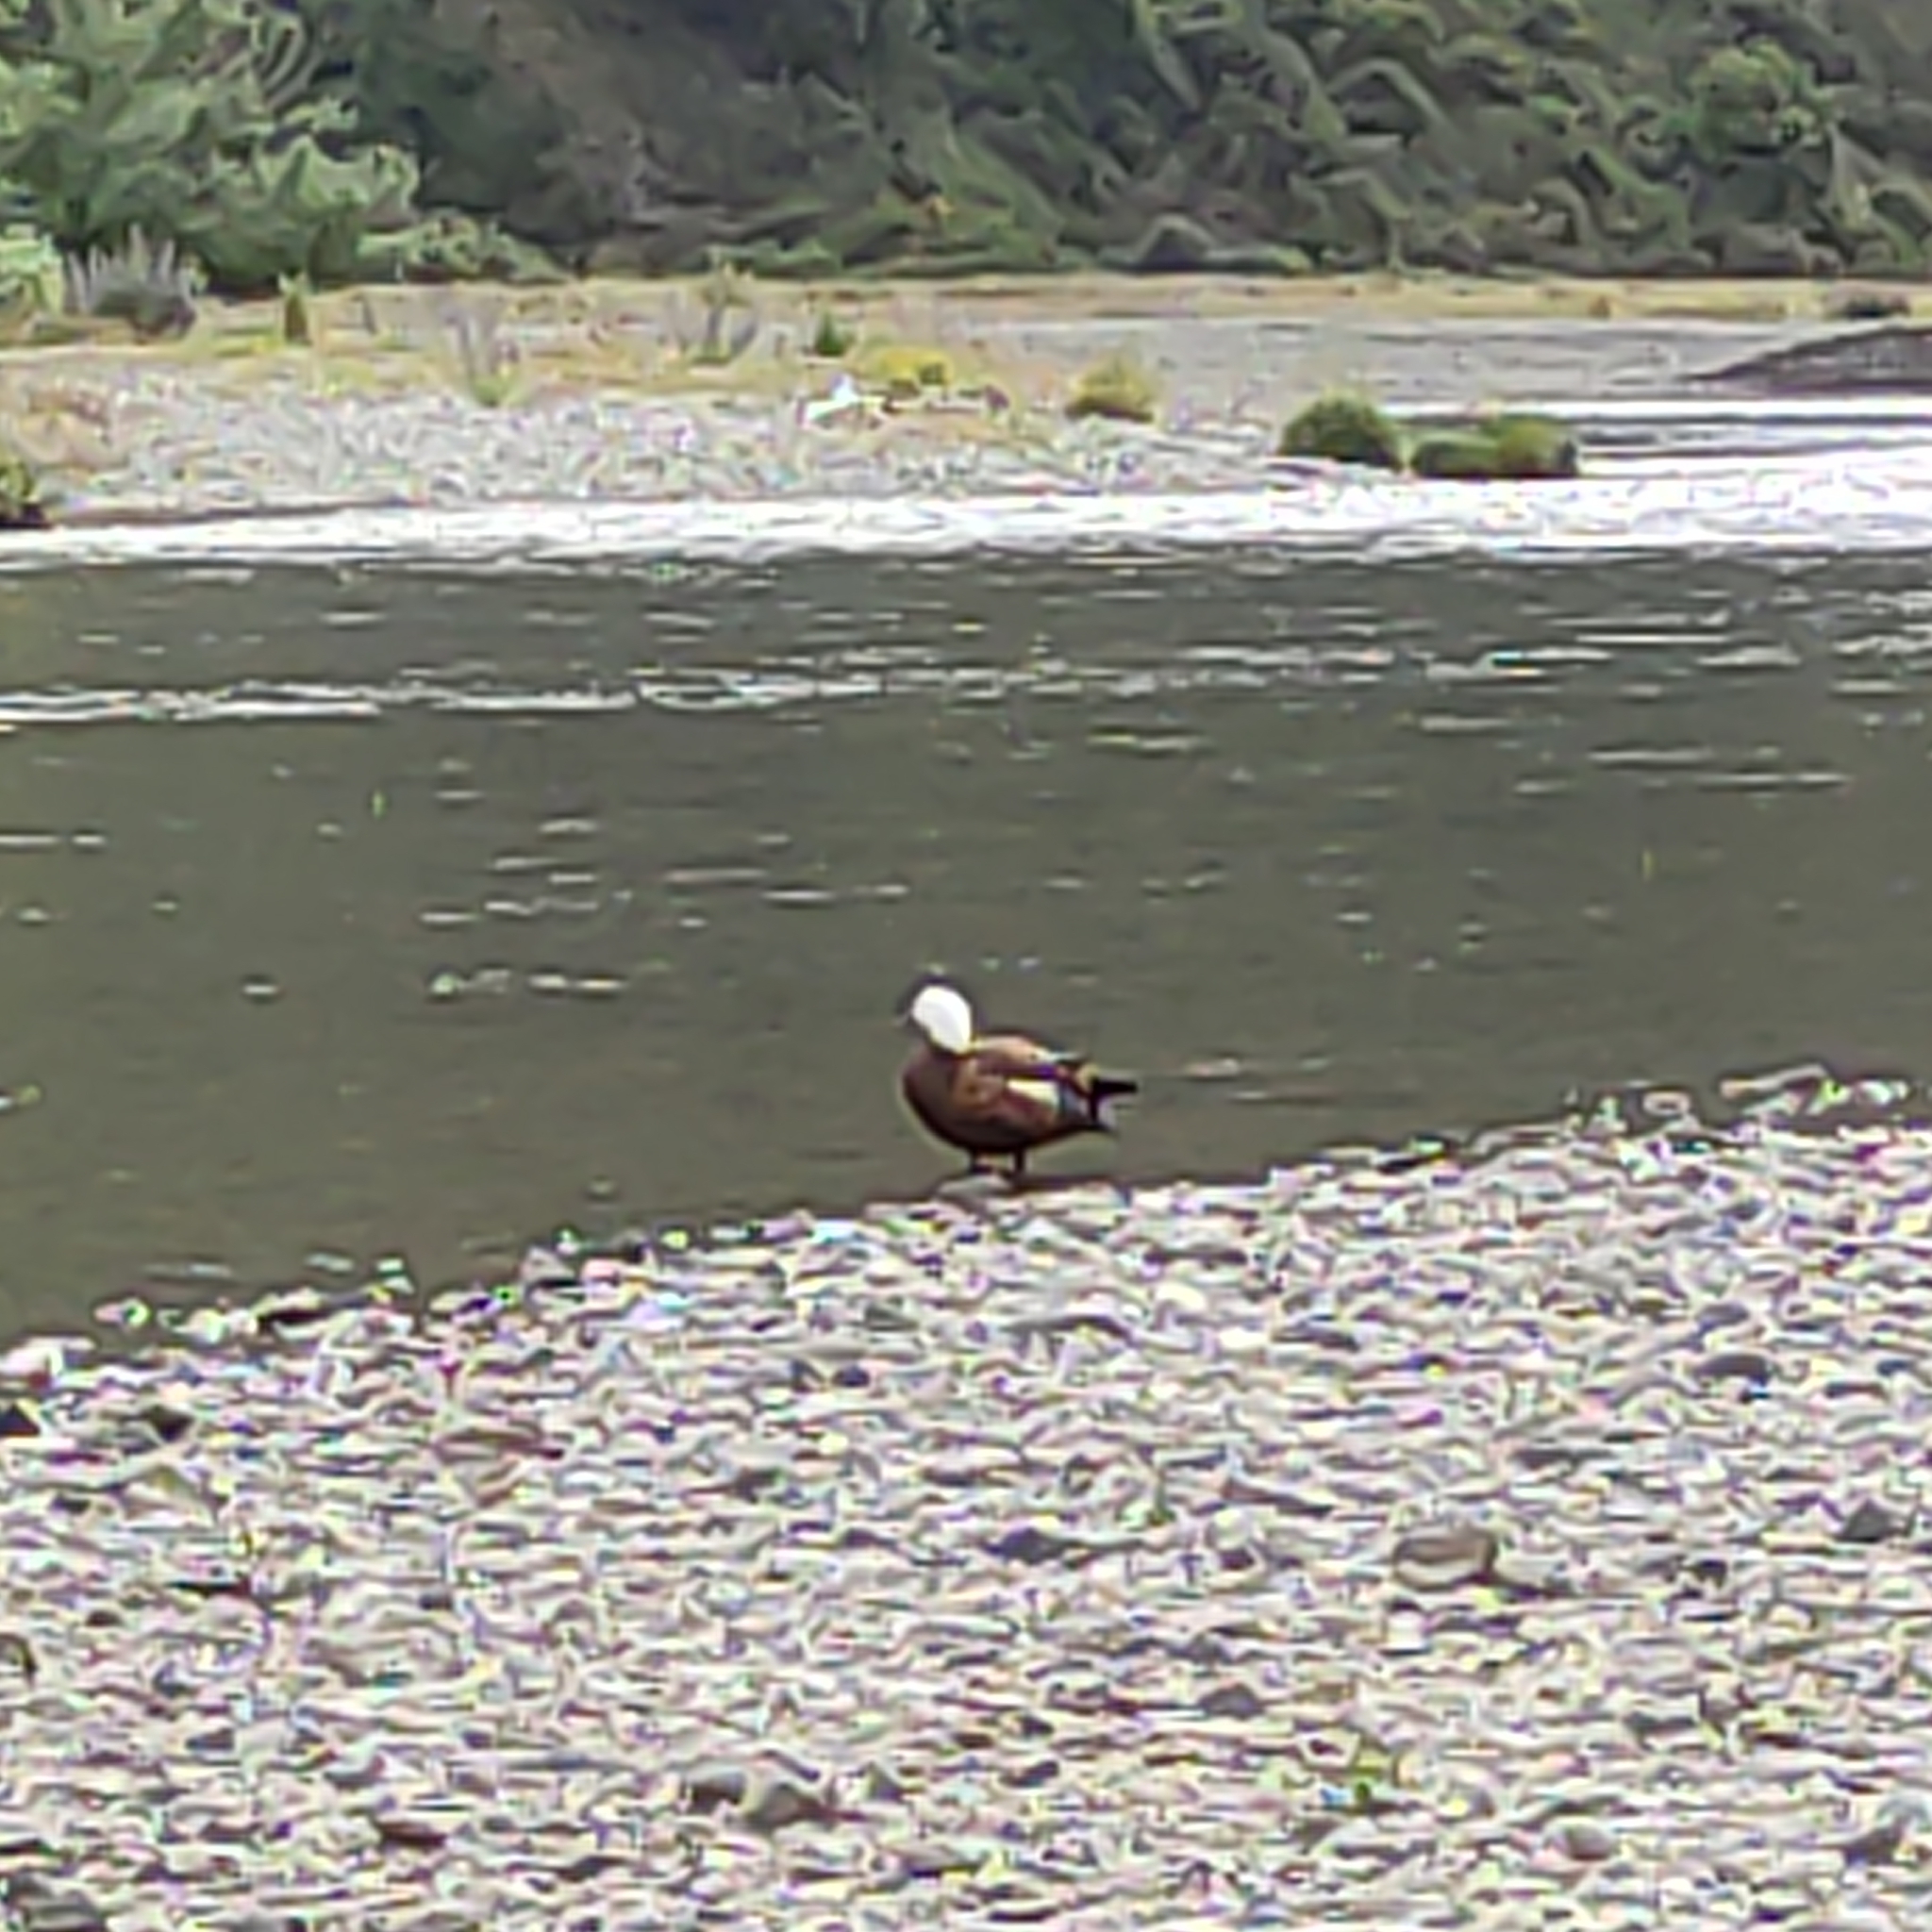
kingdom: Animalia
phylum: Chordata
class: Aves
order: Anseriformes
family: Anatidae
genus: Tadorna
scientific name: Tadorna variegata
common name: Paradise shelduck
